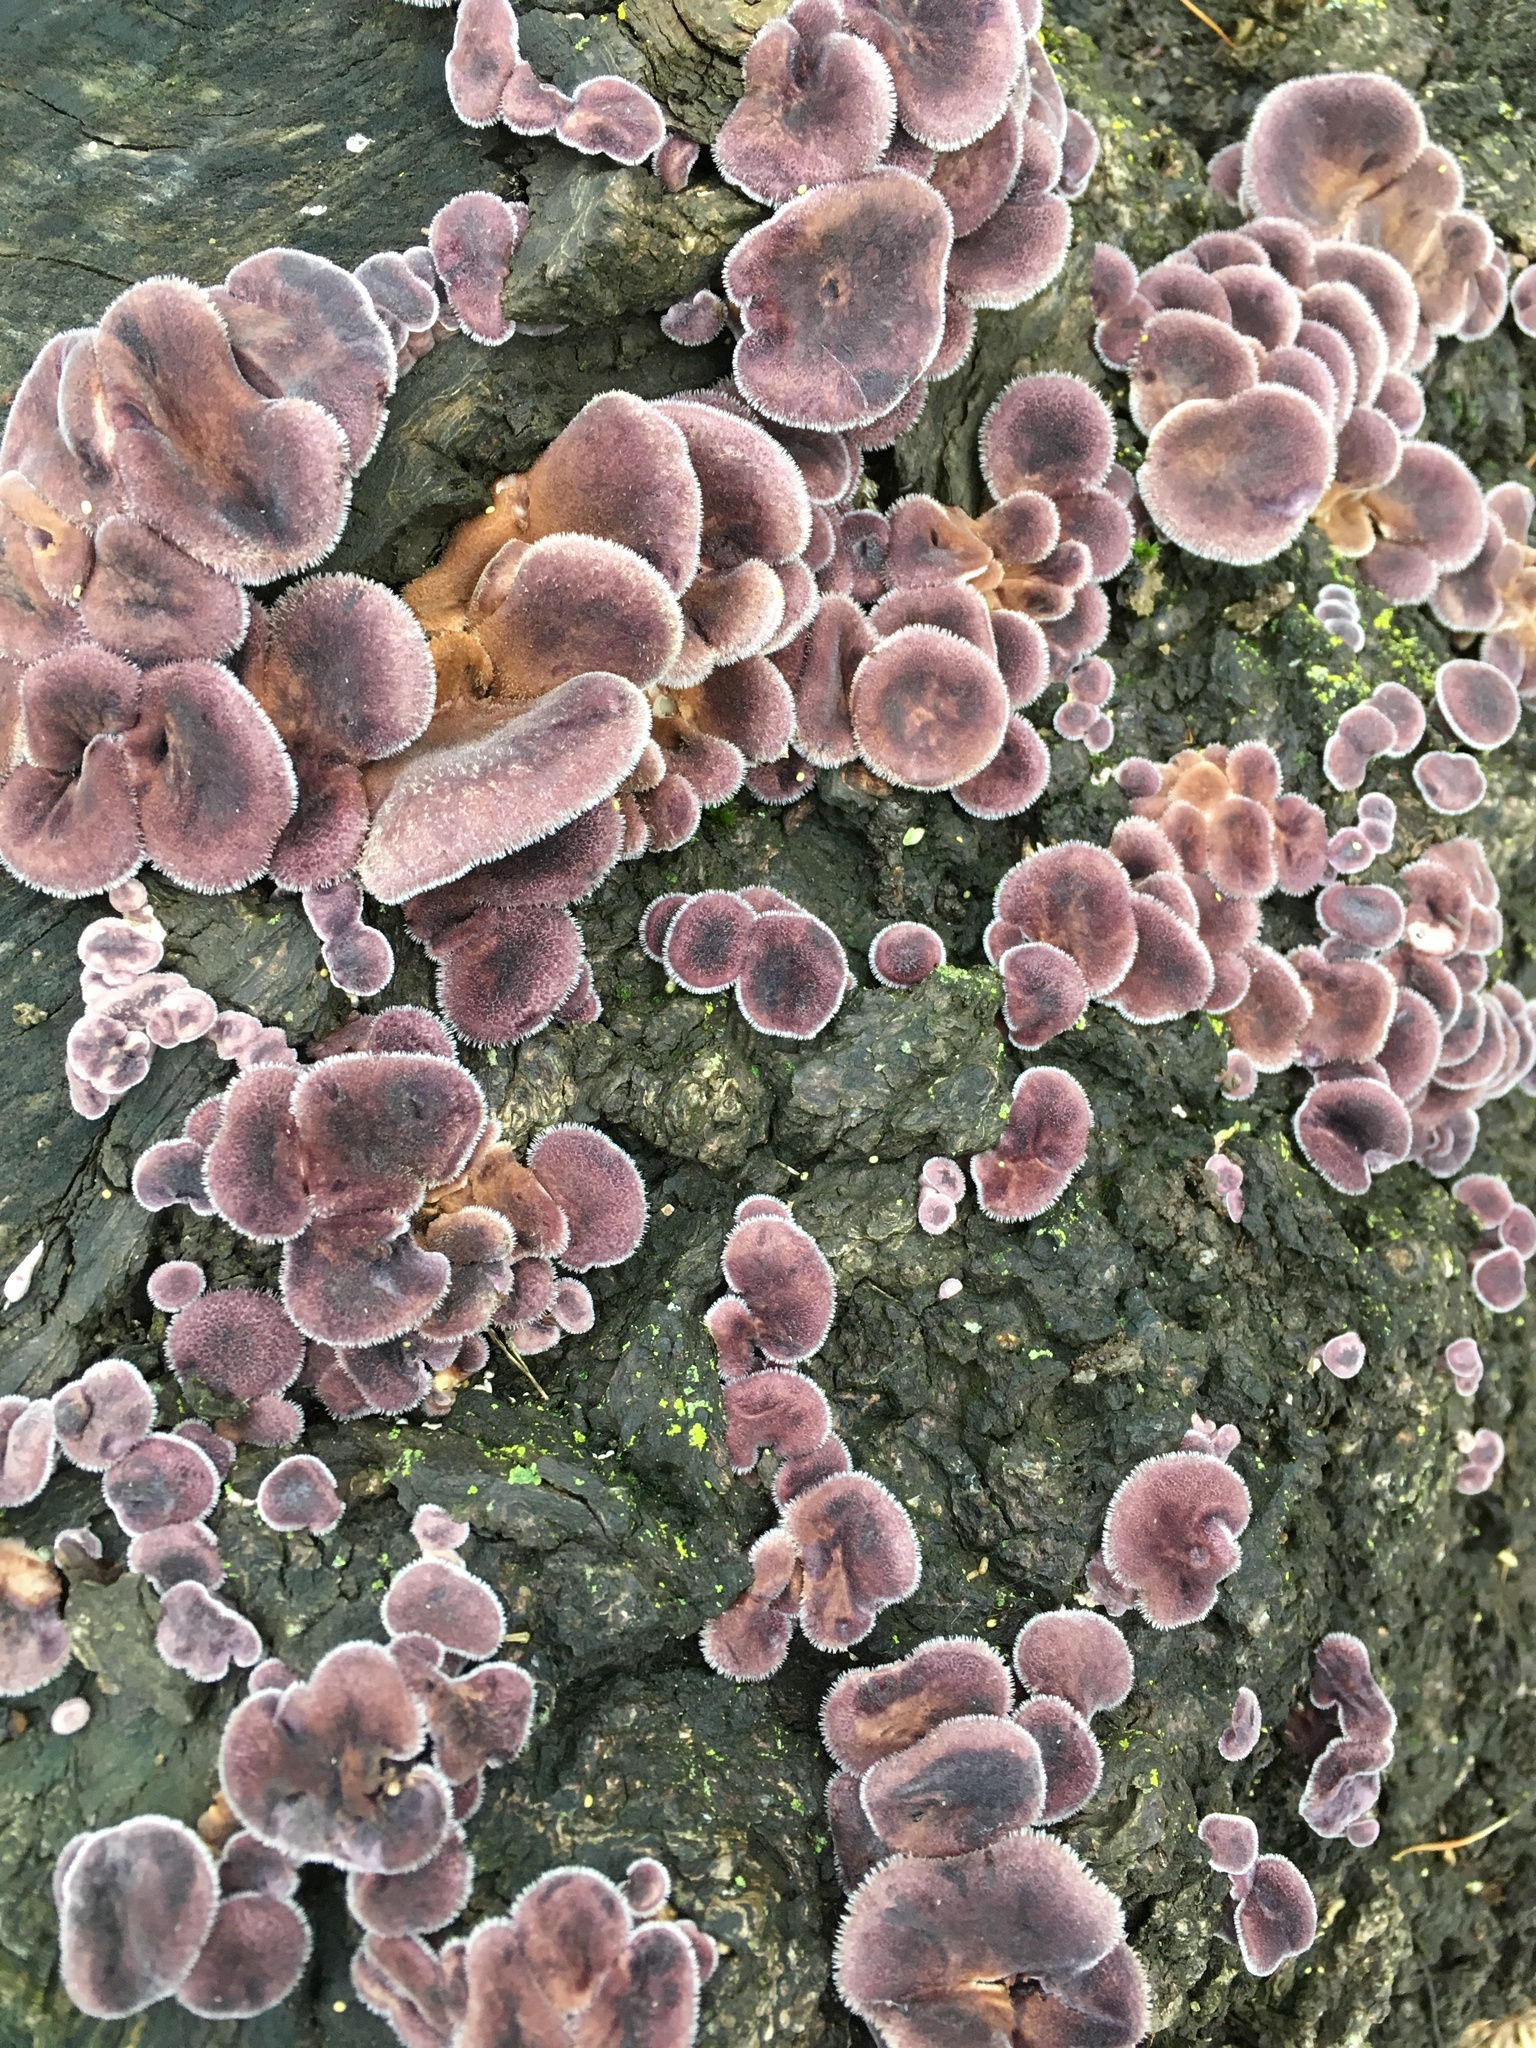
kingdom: Fungi
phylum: Basidiomycota
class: Agaricomycetes
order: Polyporales
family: Panaceae
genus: Panus
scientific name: Panus neostrigosus
